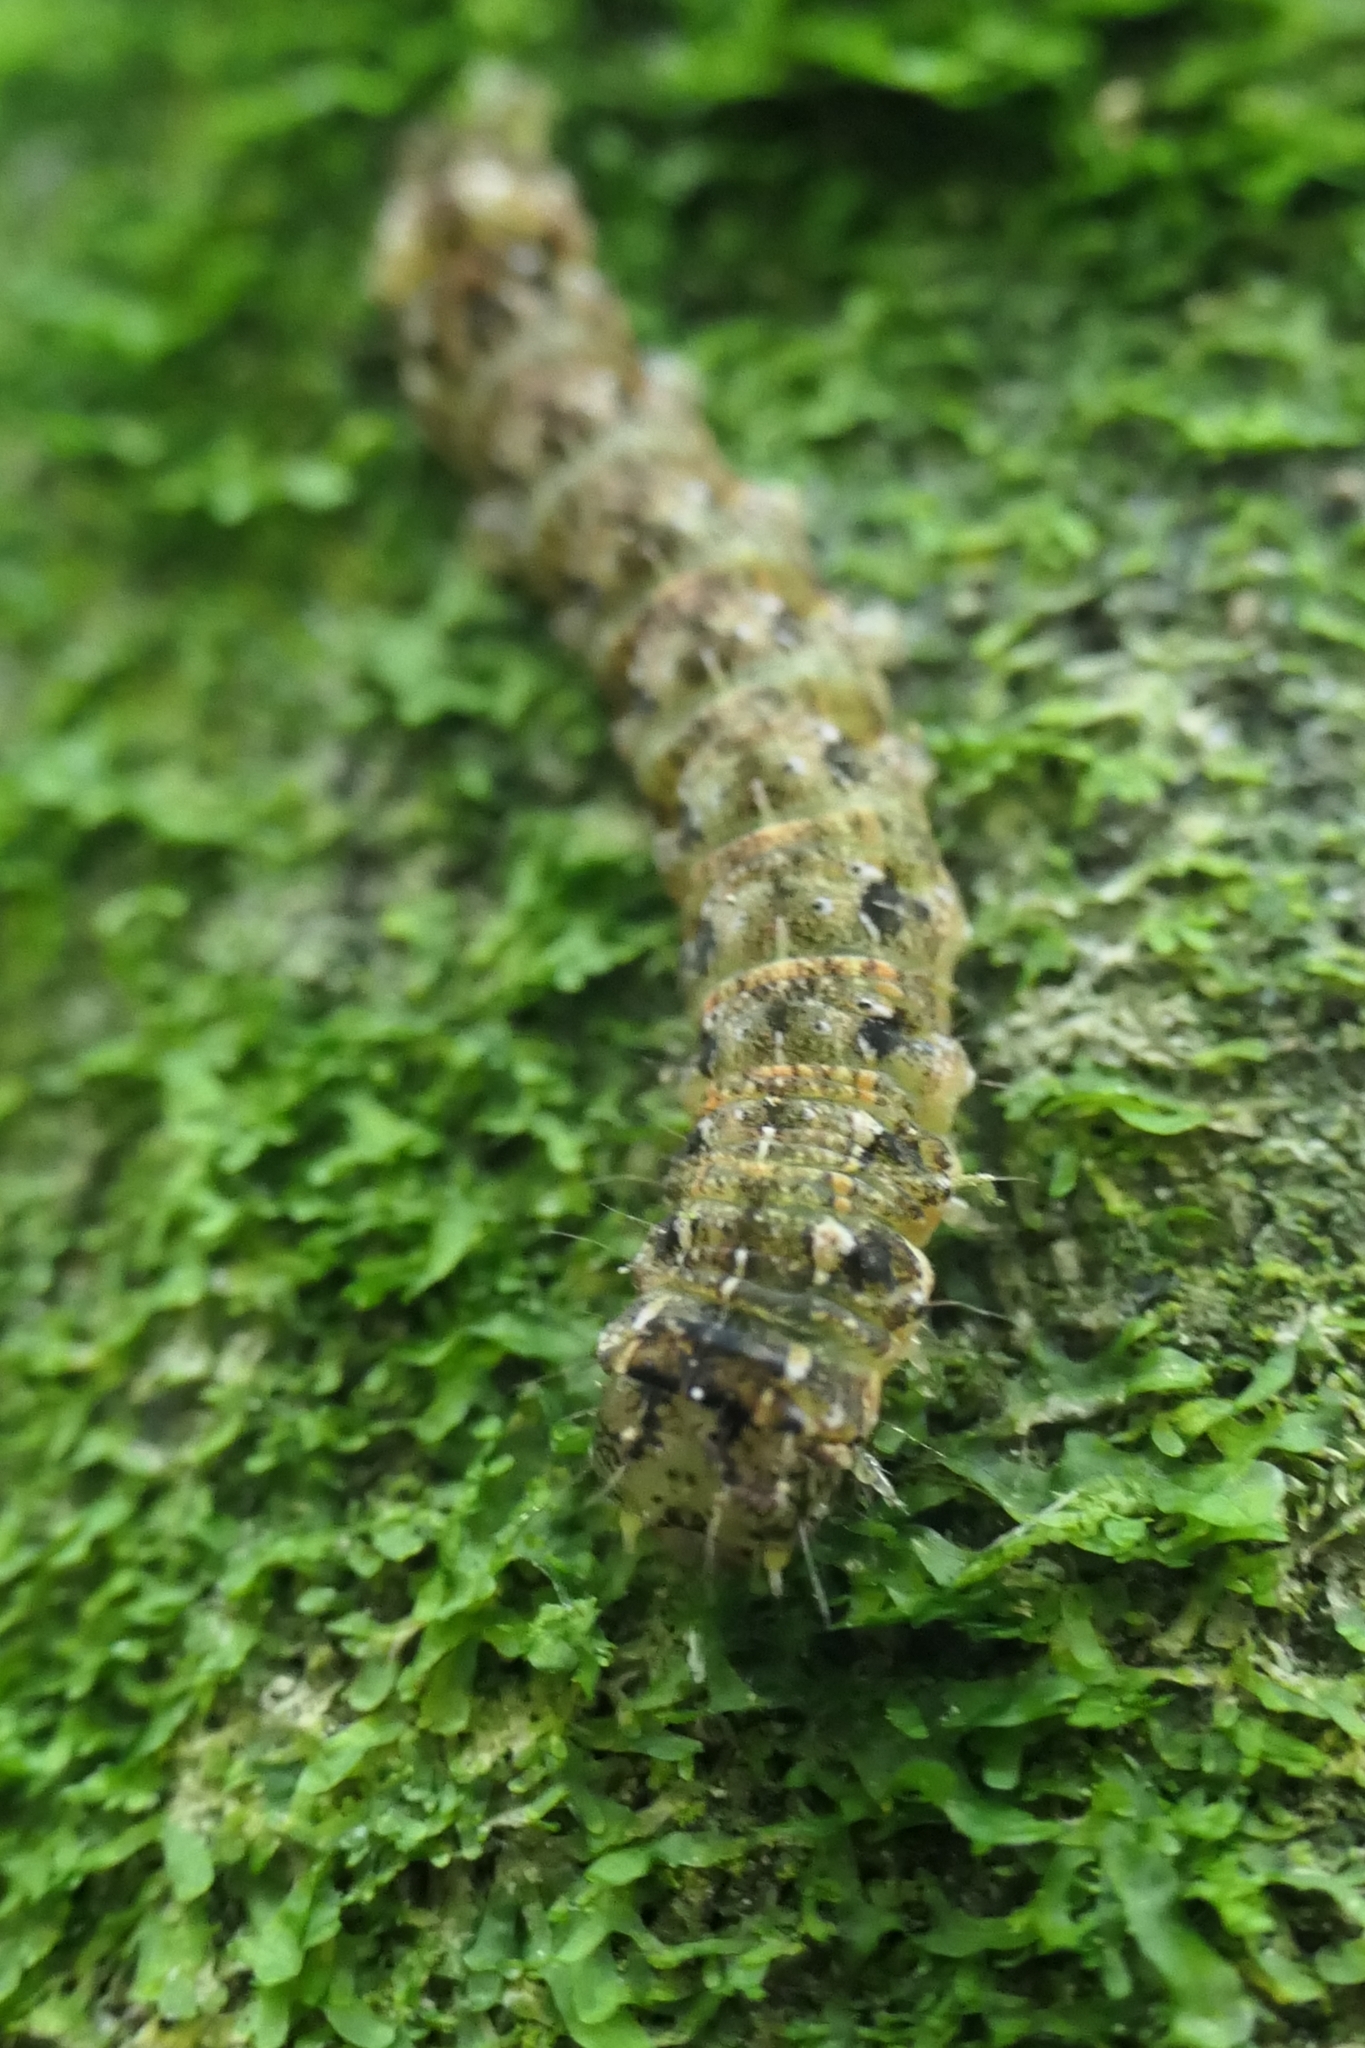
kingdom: Animalia
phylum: Arthropoda
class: Insecta
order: Lepidoptera
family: Noctuidae
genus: Feredayia
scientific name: Feredayia grammosa
